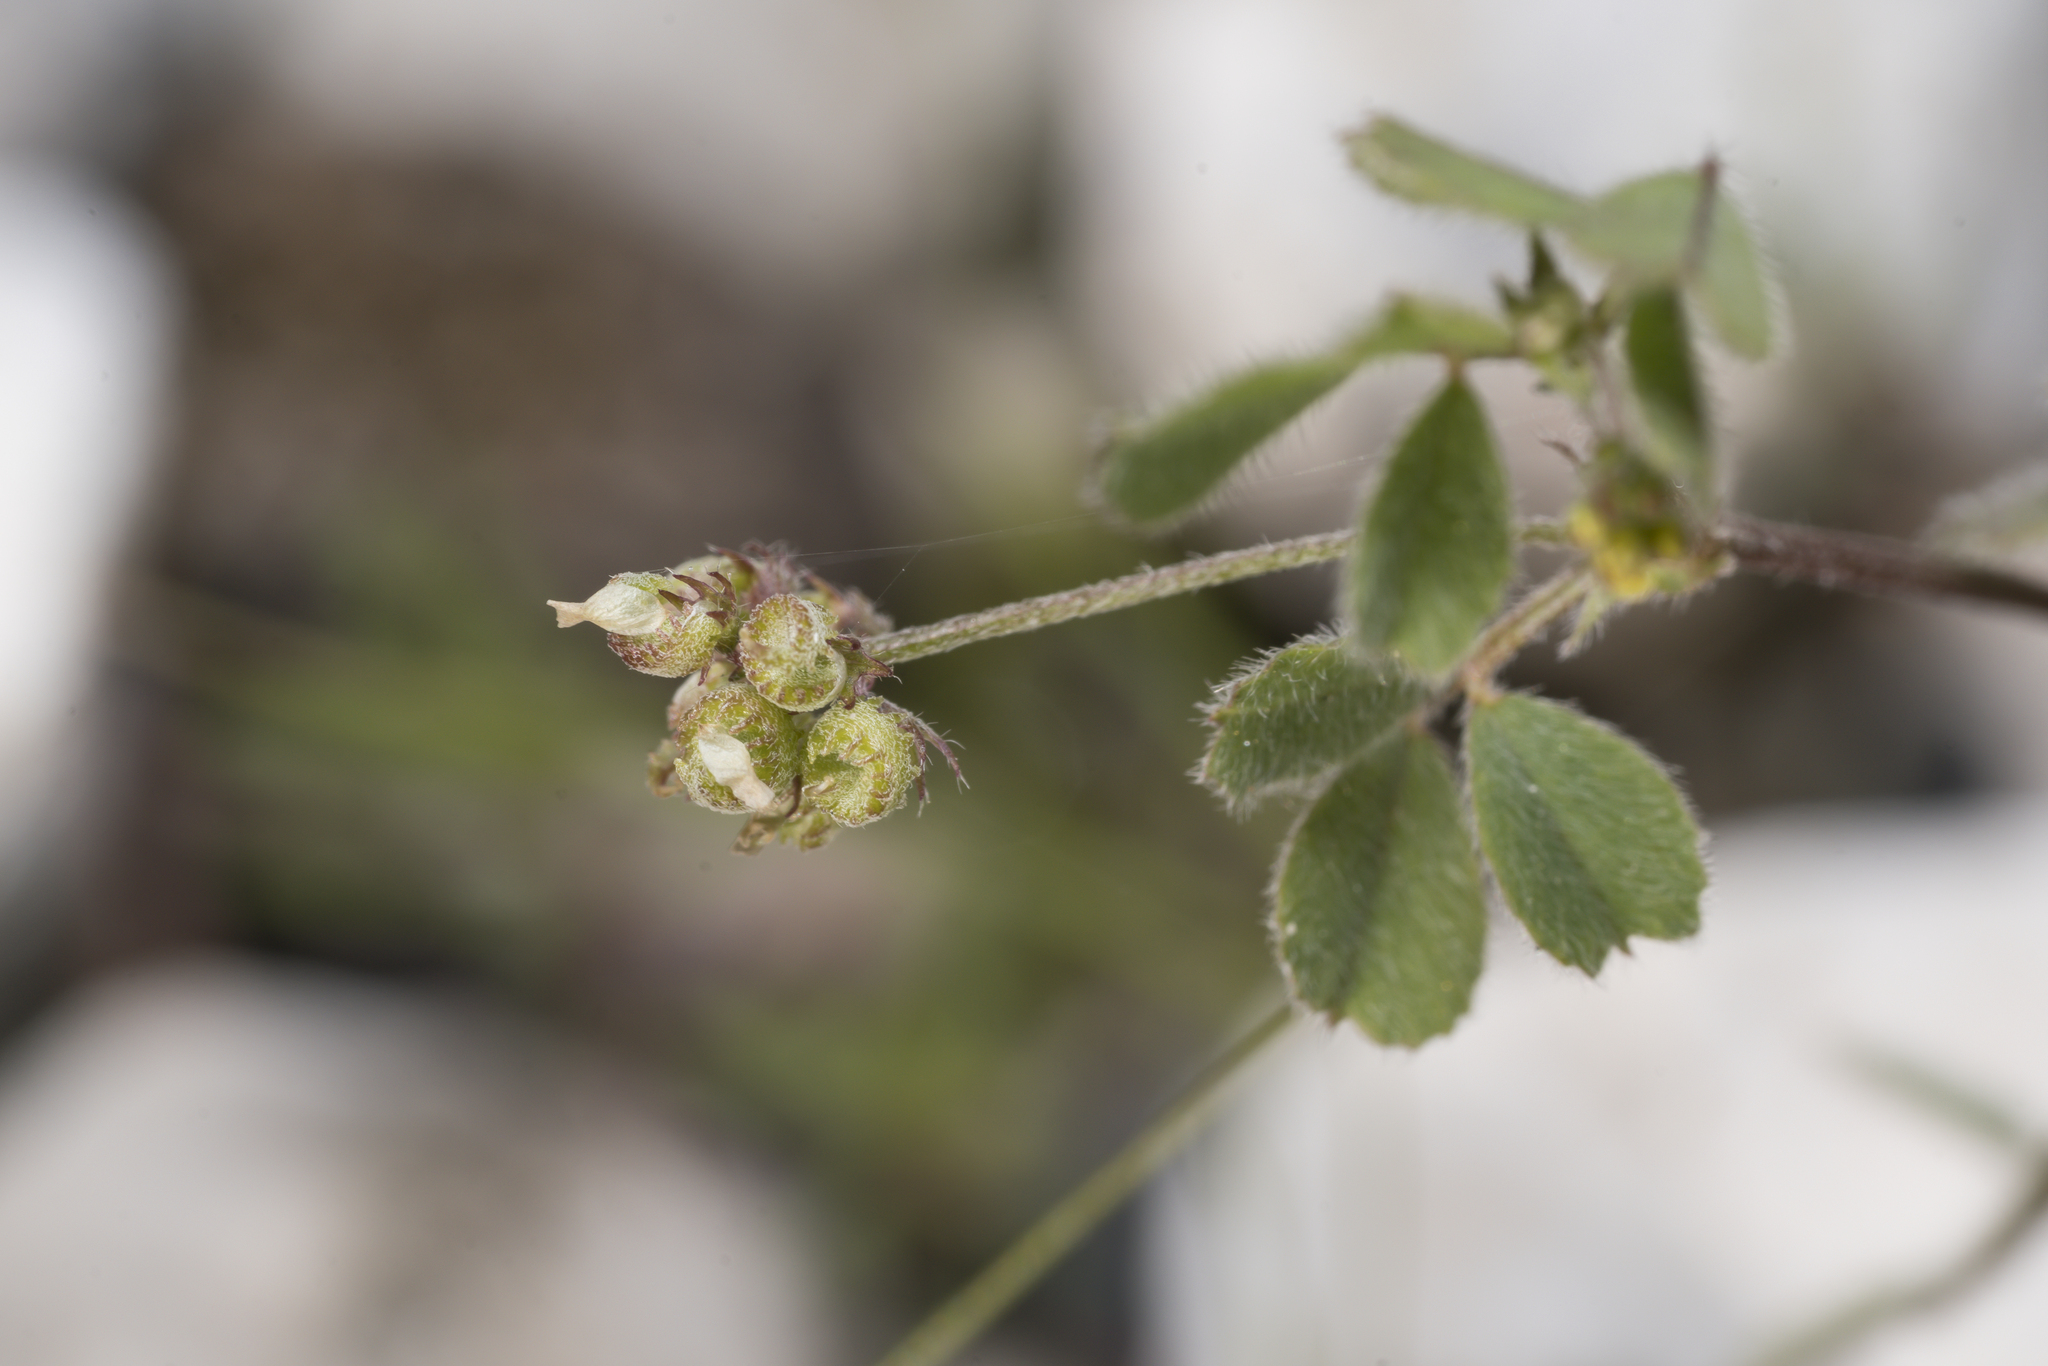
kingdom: Plantae
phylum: Tracheophyta
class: Magnoliopsida
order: Fabales
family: Fabaceae
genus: Medicago
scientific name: Medicago coronata
